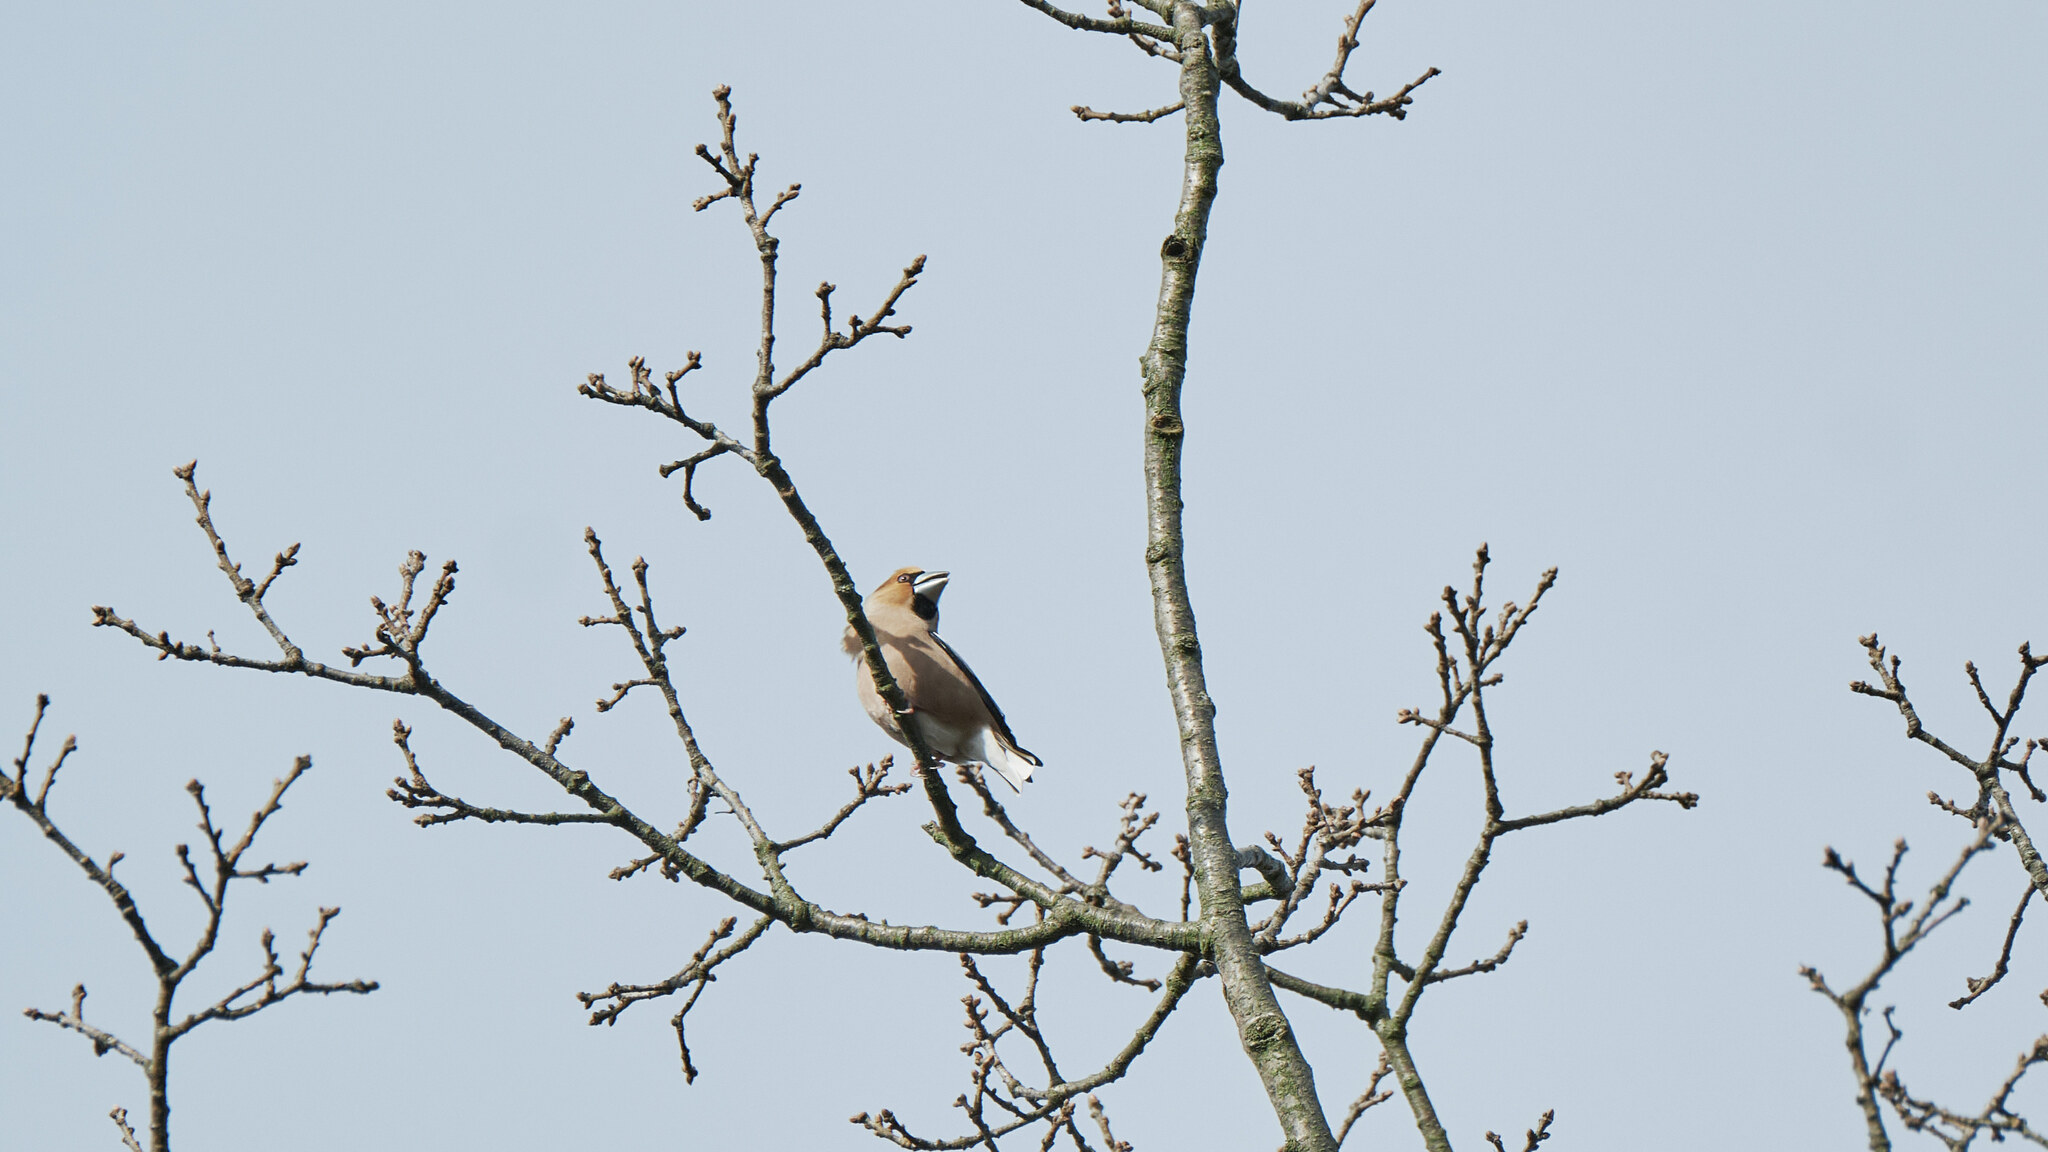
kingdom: Animalia
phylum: Chordata
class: Aves
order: Passeriformes
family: Fringillidae
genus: Coccothraustes
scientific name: Coccothraustes coccothraustes
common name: Hawfinch
